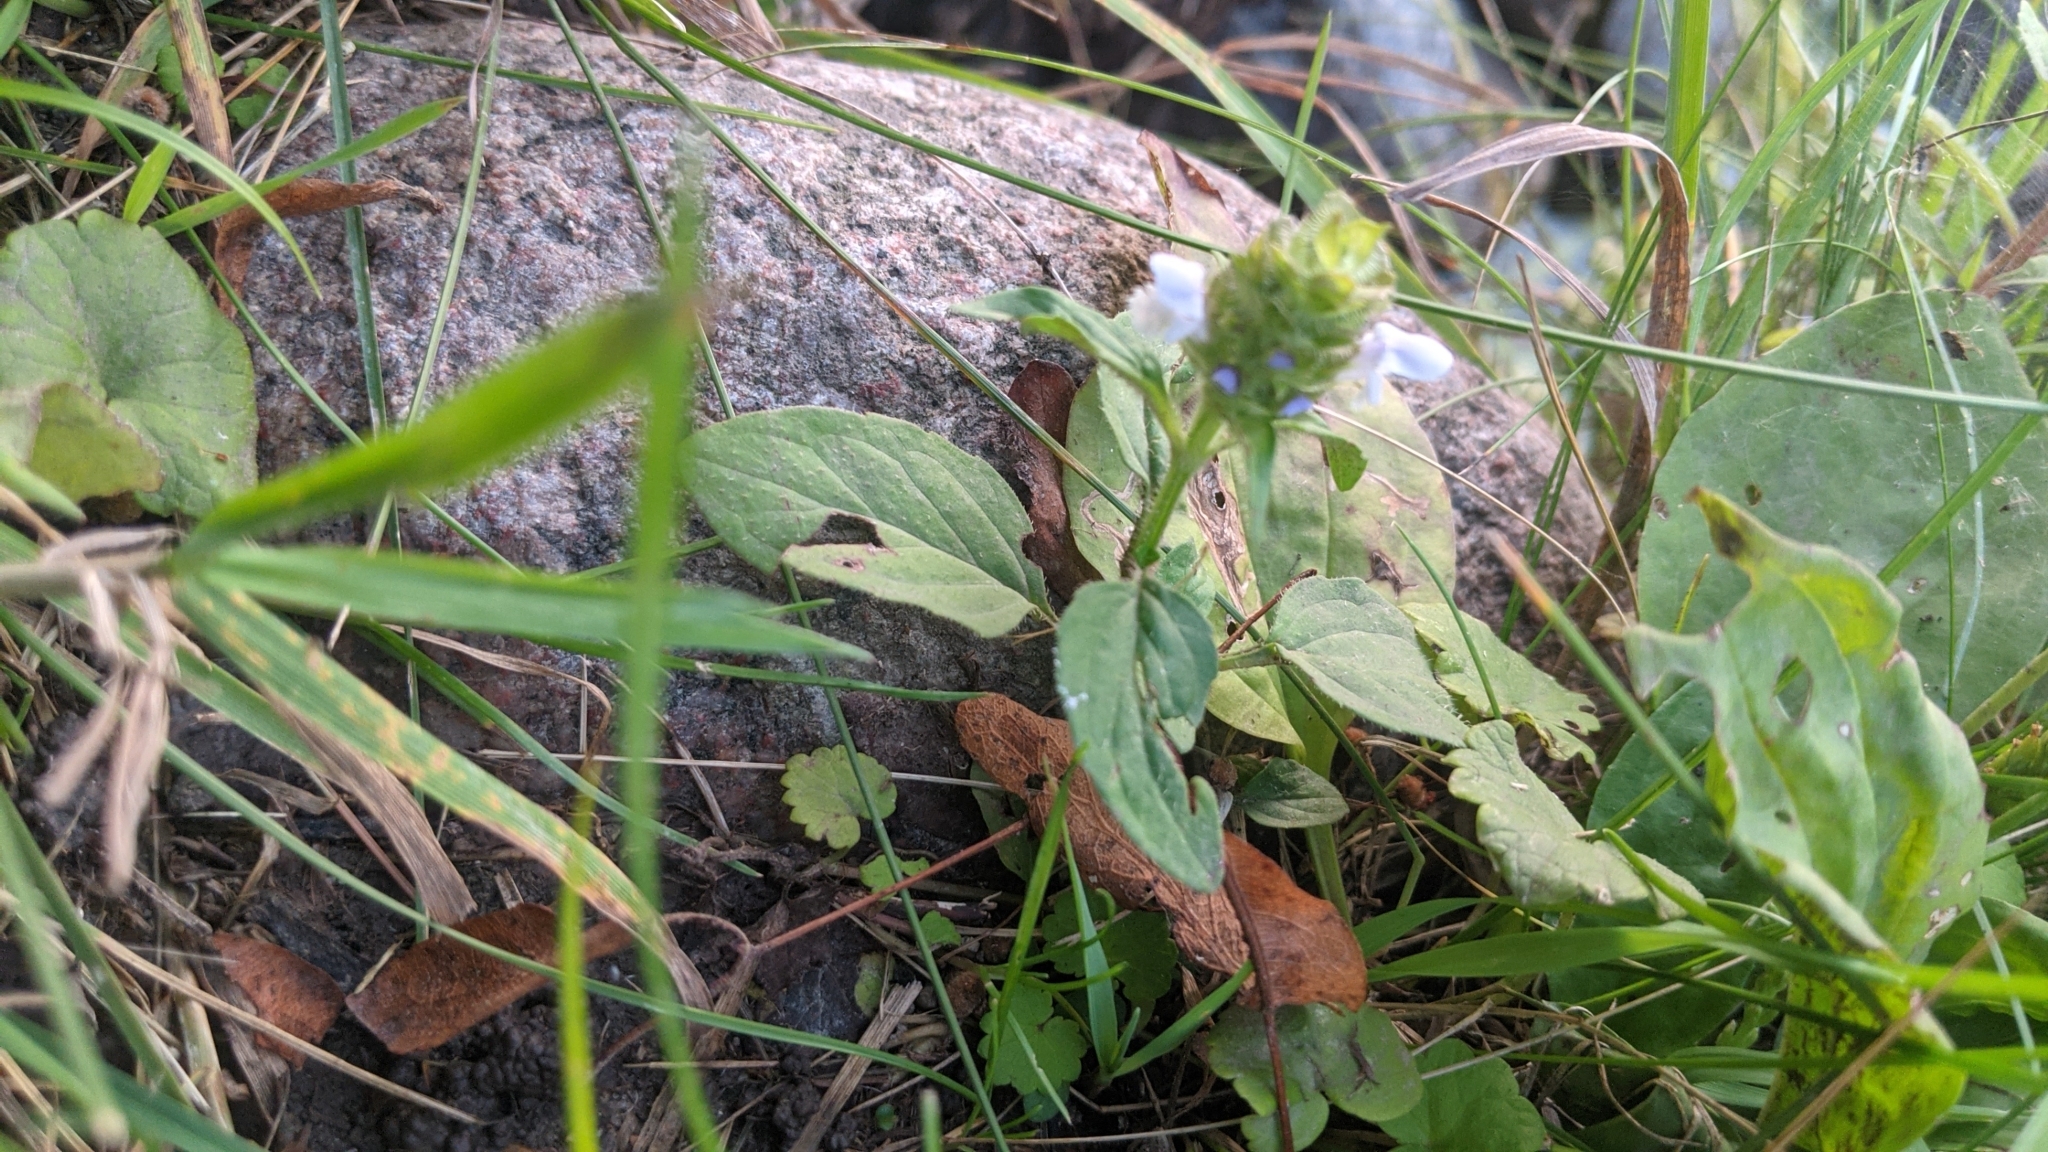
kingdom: Plantae
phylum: Tracheophyta
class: Magnoliopsida
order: Lamiales
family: Lamiaceae
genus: Prunella
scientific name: Prunella vulgaris
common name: Heal-all
